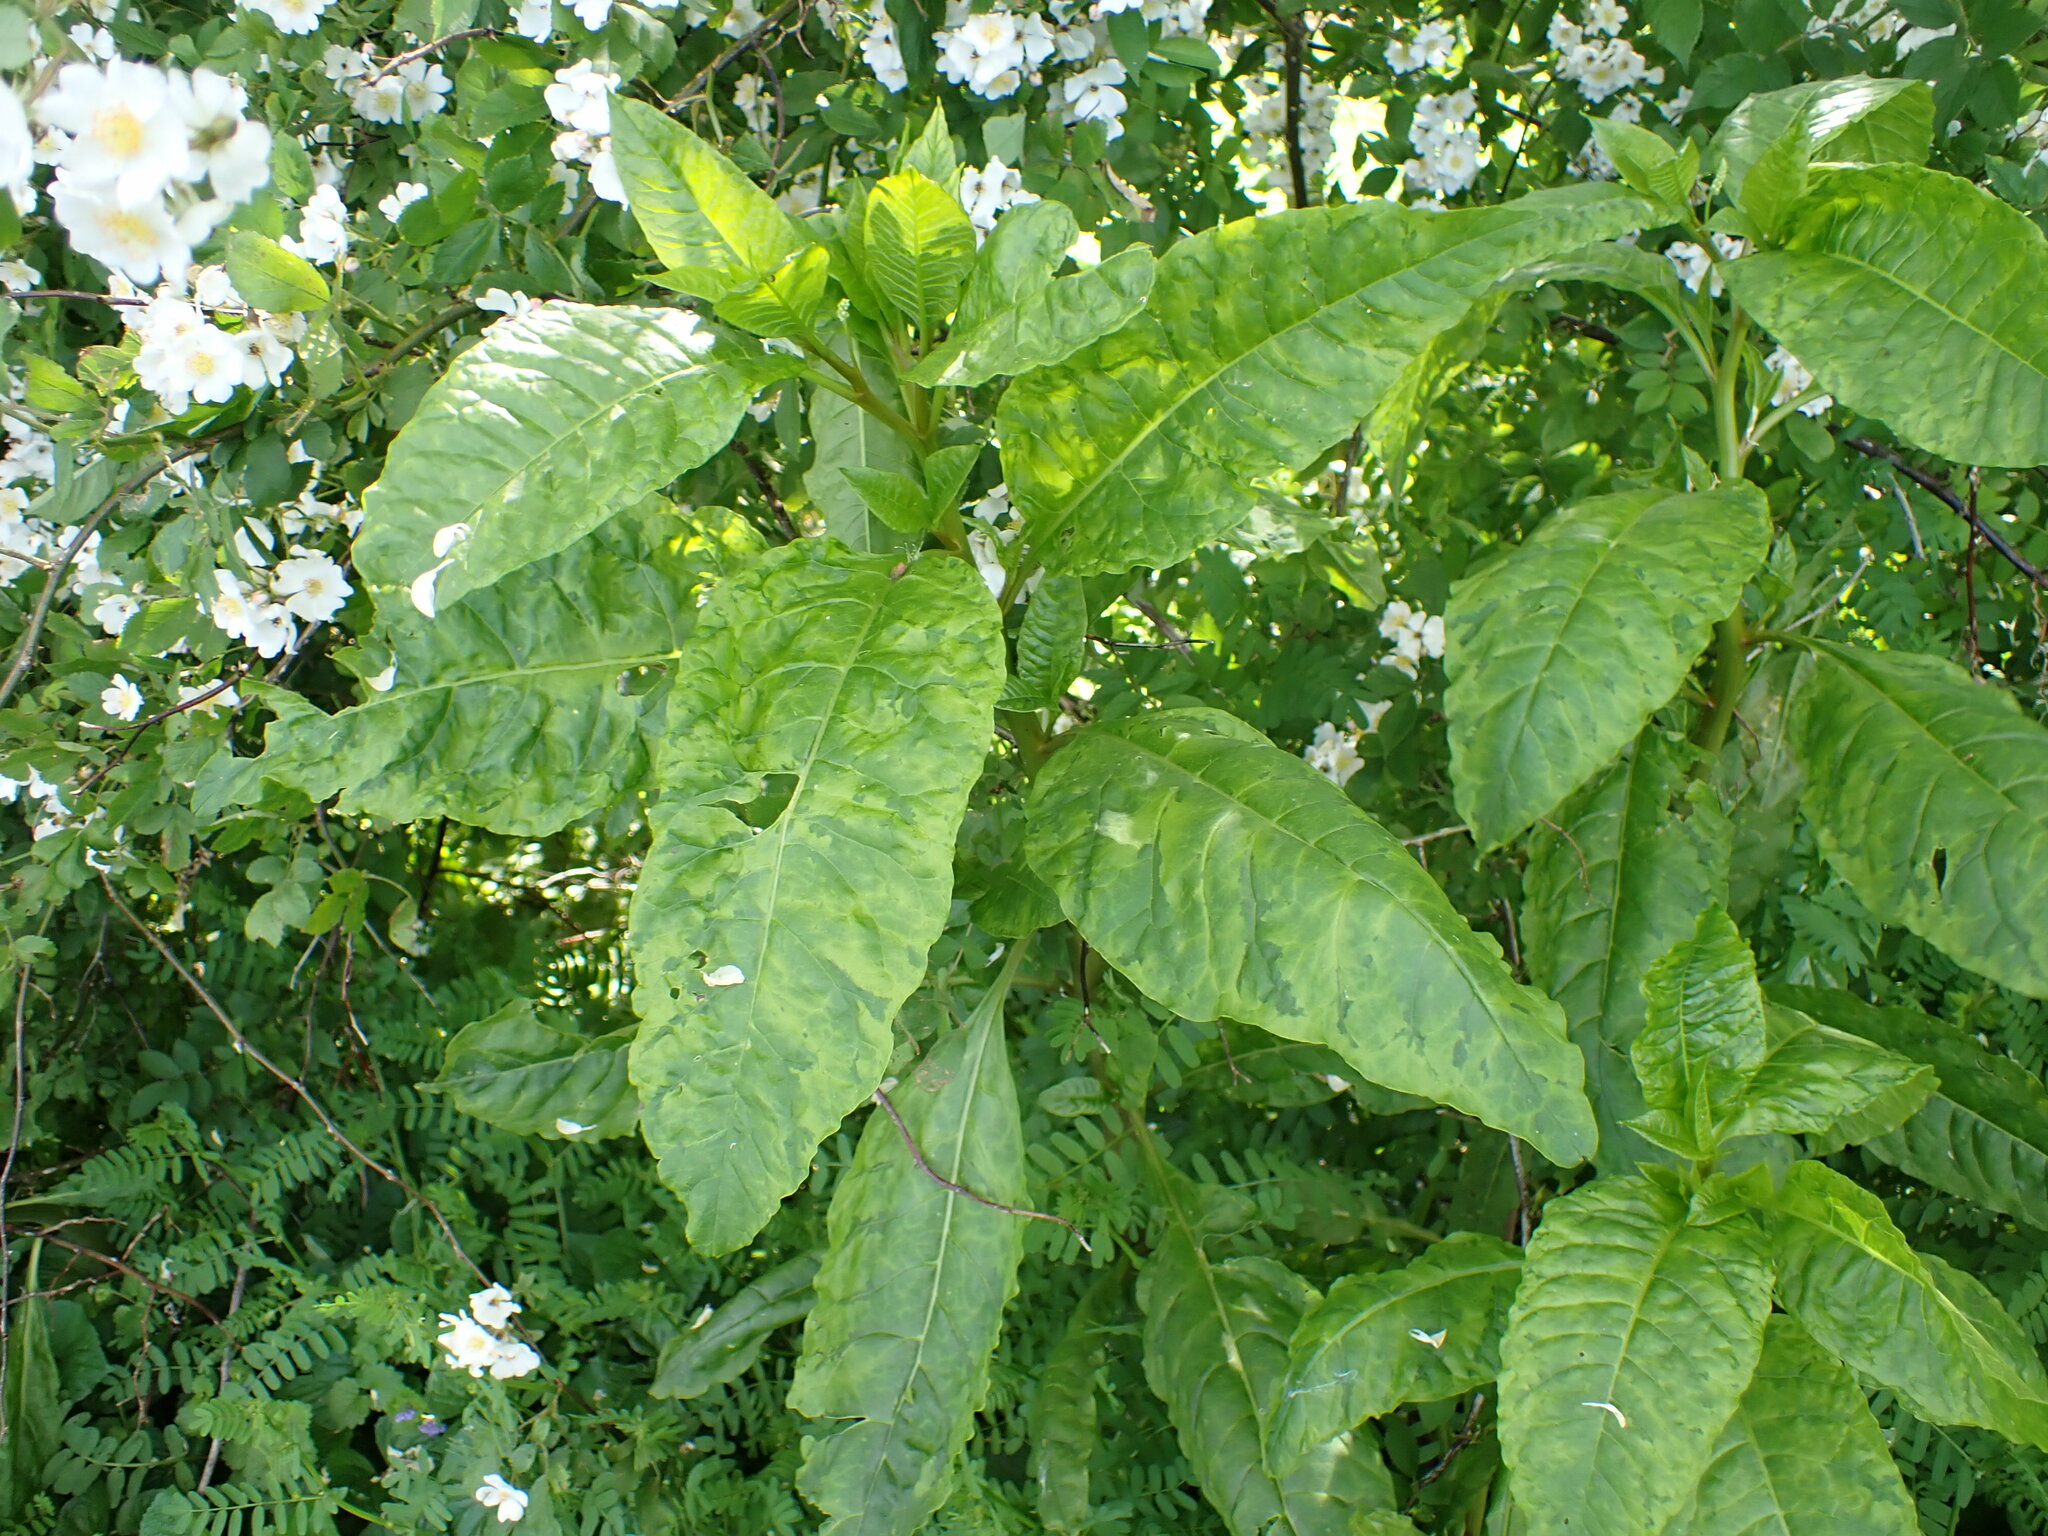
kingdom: Plantae
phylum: Tracheophyta
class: Magnoliopsida
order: Caryophyllales
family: Phytolaccaceae
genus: Phytolacca
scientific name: Phytolacca americana
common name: American pokeweed
